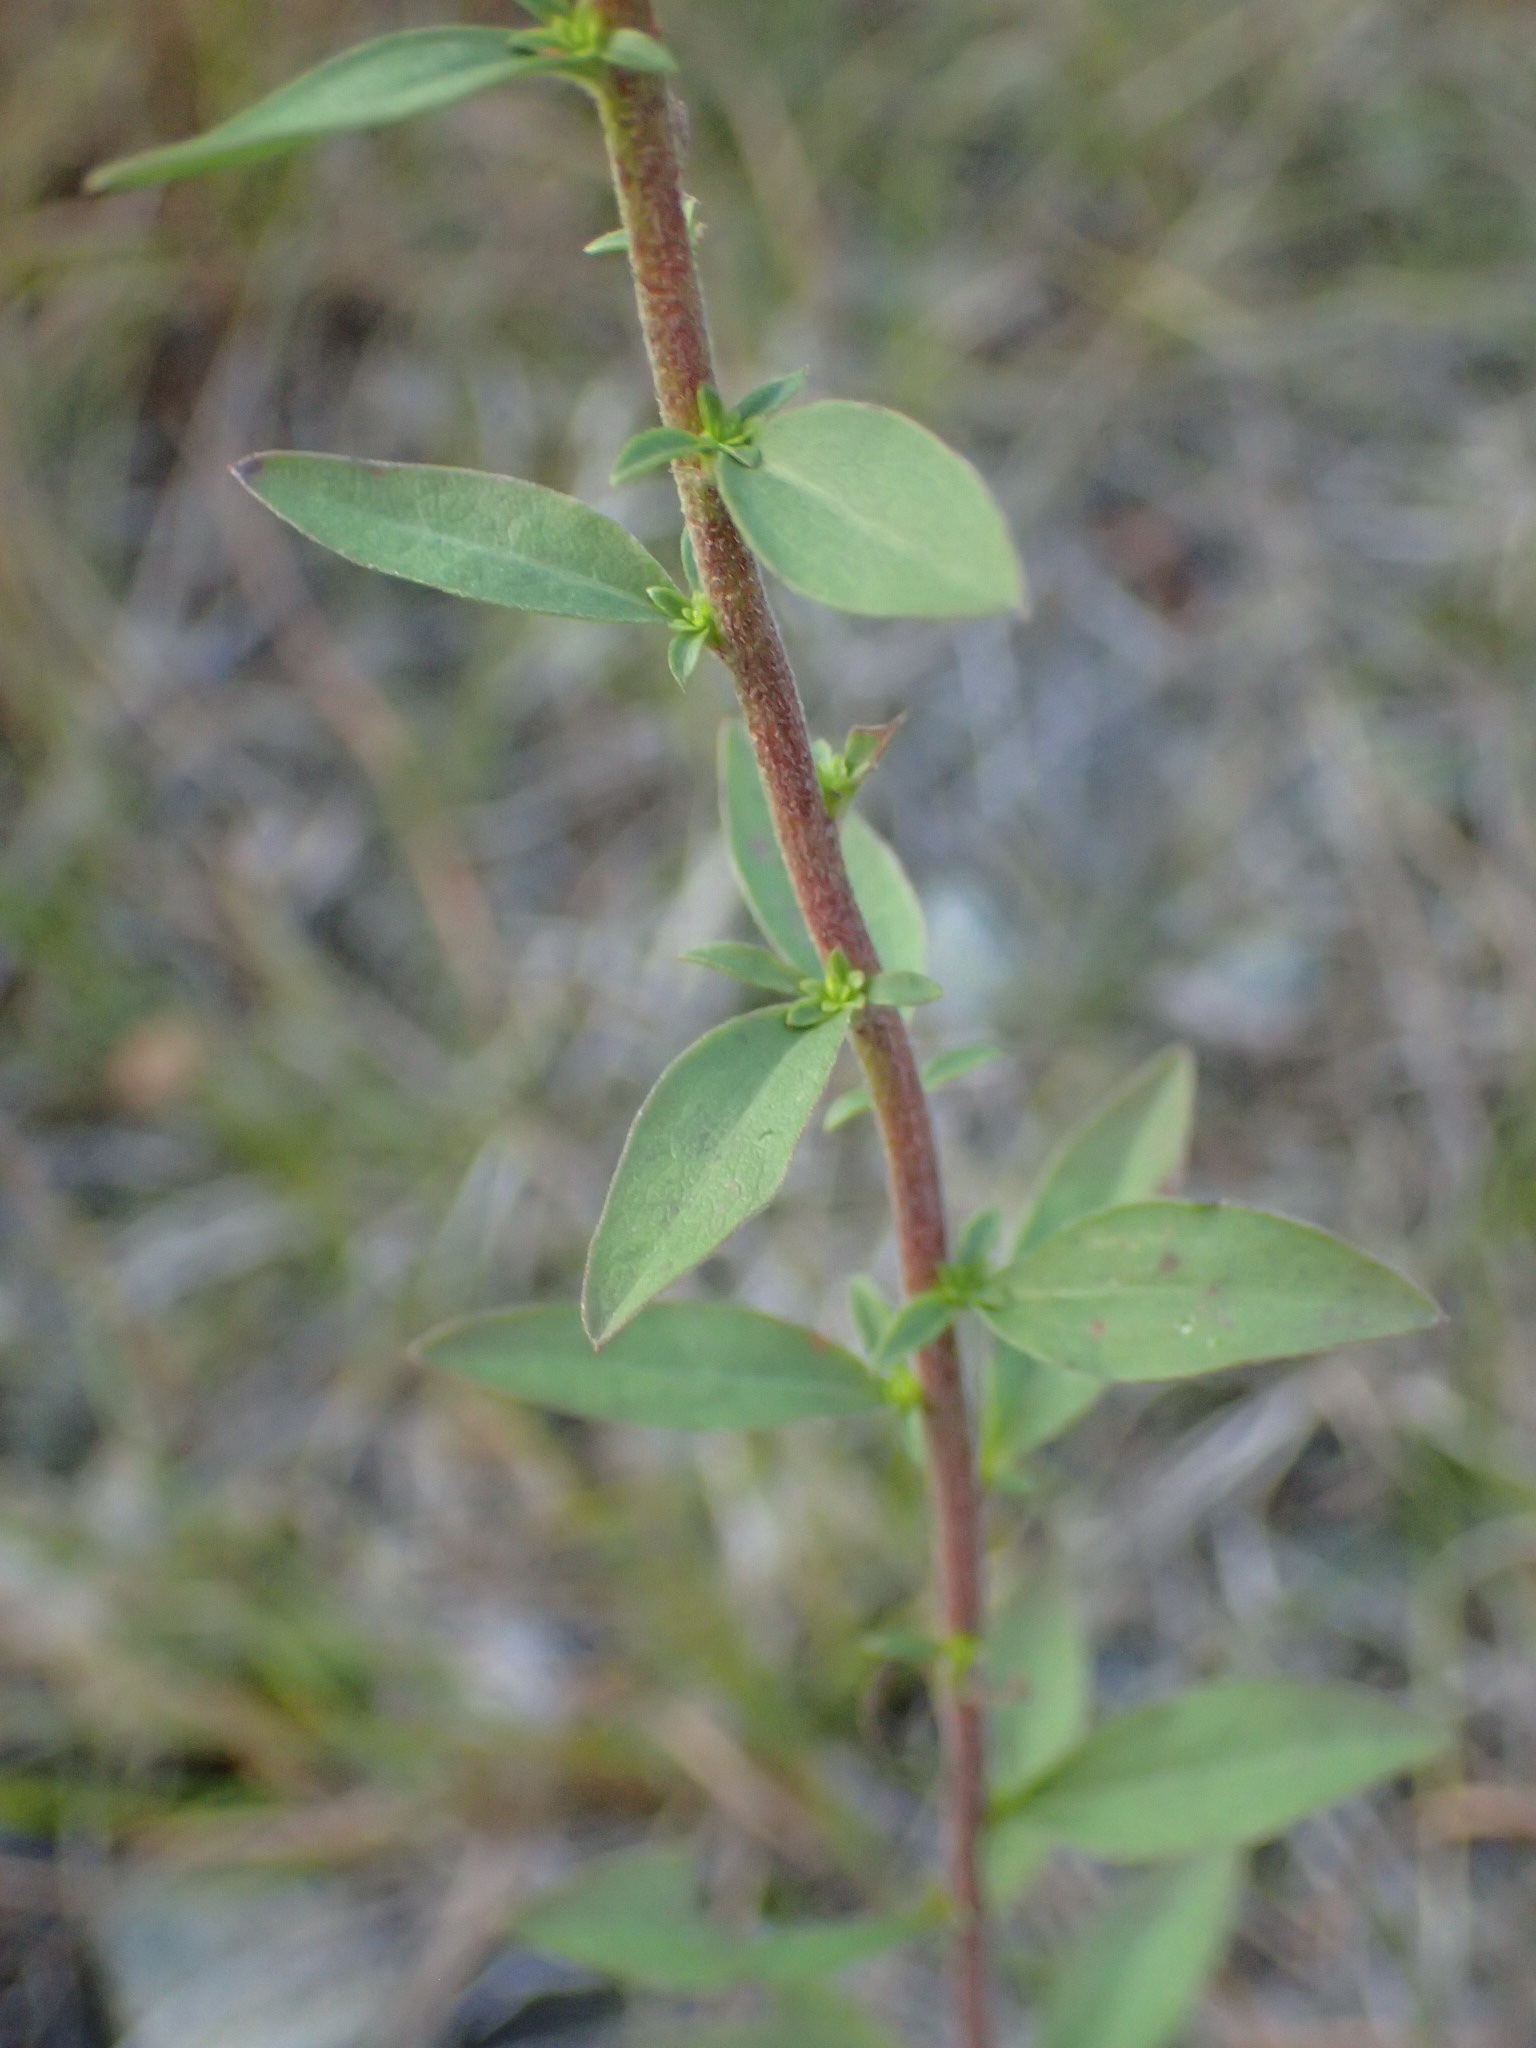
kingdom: Plantae
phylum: Tracheophyta
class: Magnoliopsida
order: Asterales
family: Asteraceae
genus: Solidago
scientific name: Solidago bicolor
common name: Silverrod
